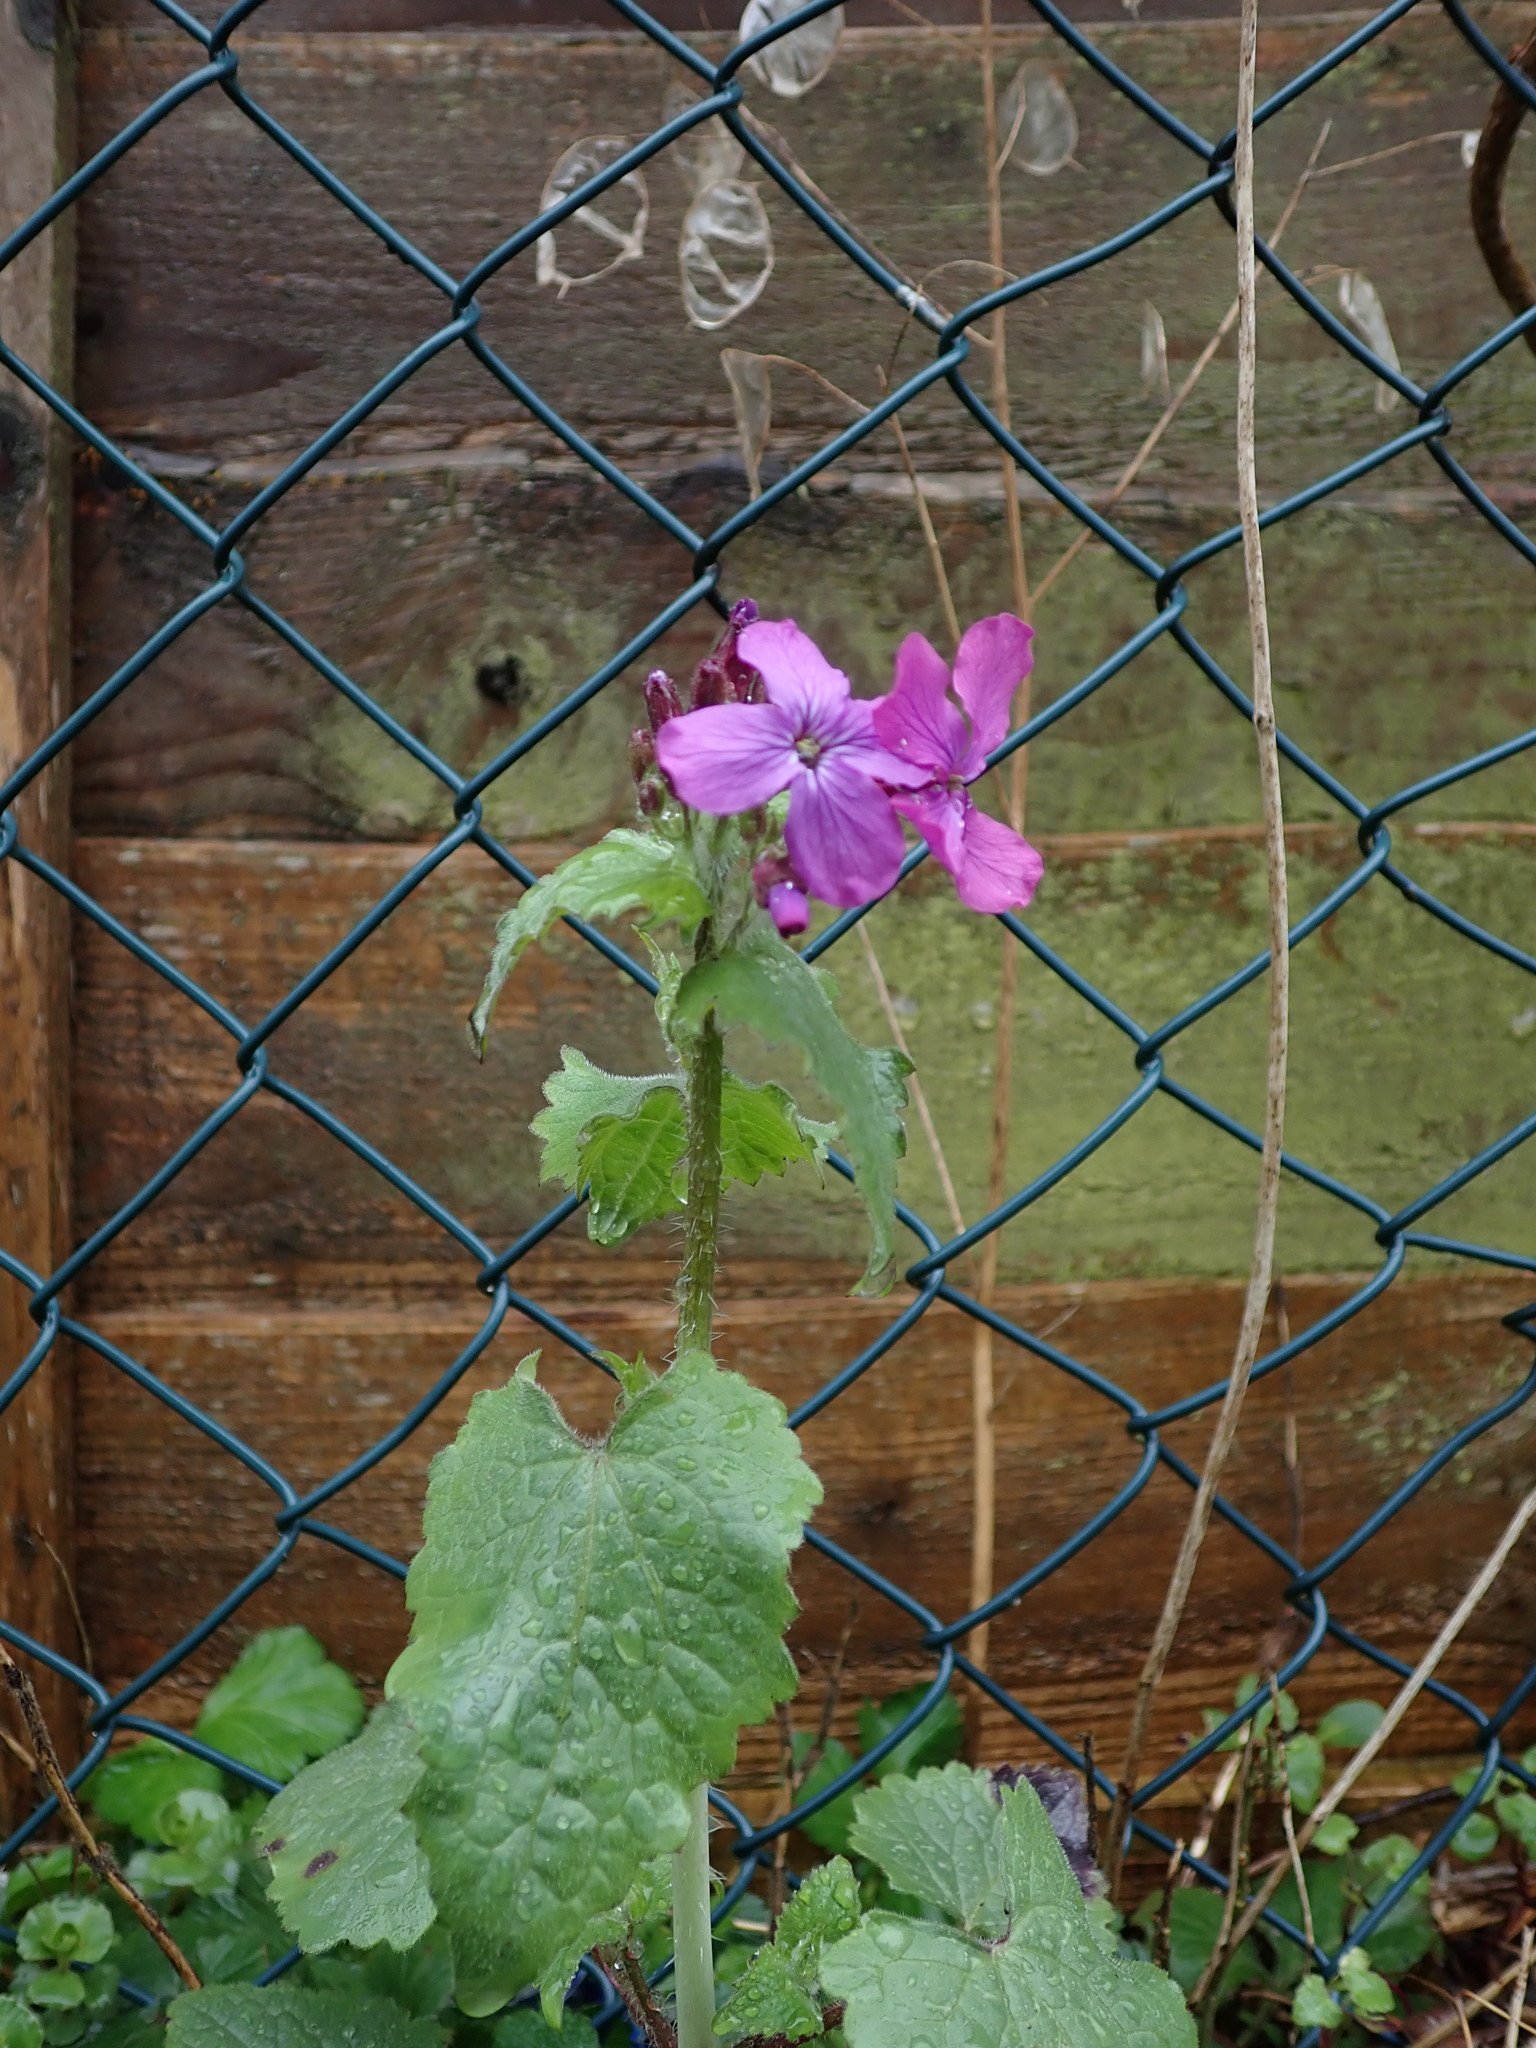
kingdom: Plantae
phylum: Tracheophyta
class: Magnoliopsida
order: Brassicales
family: Brassicaceae
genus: Lunaria
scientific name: Lunaria annua
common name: Honesty
